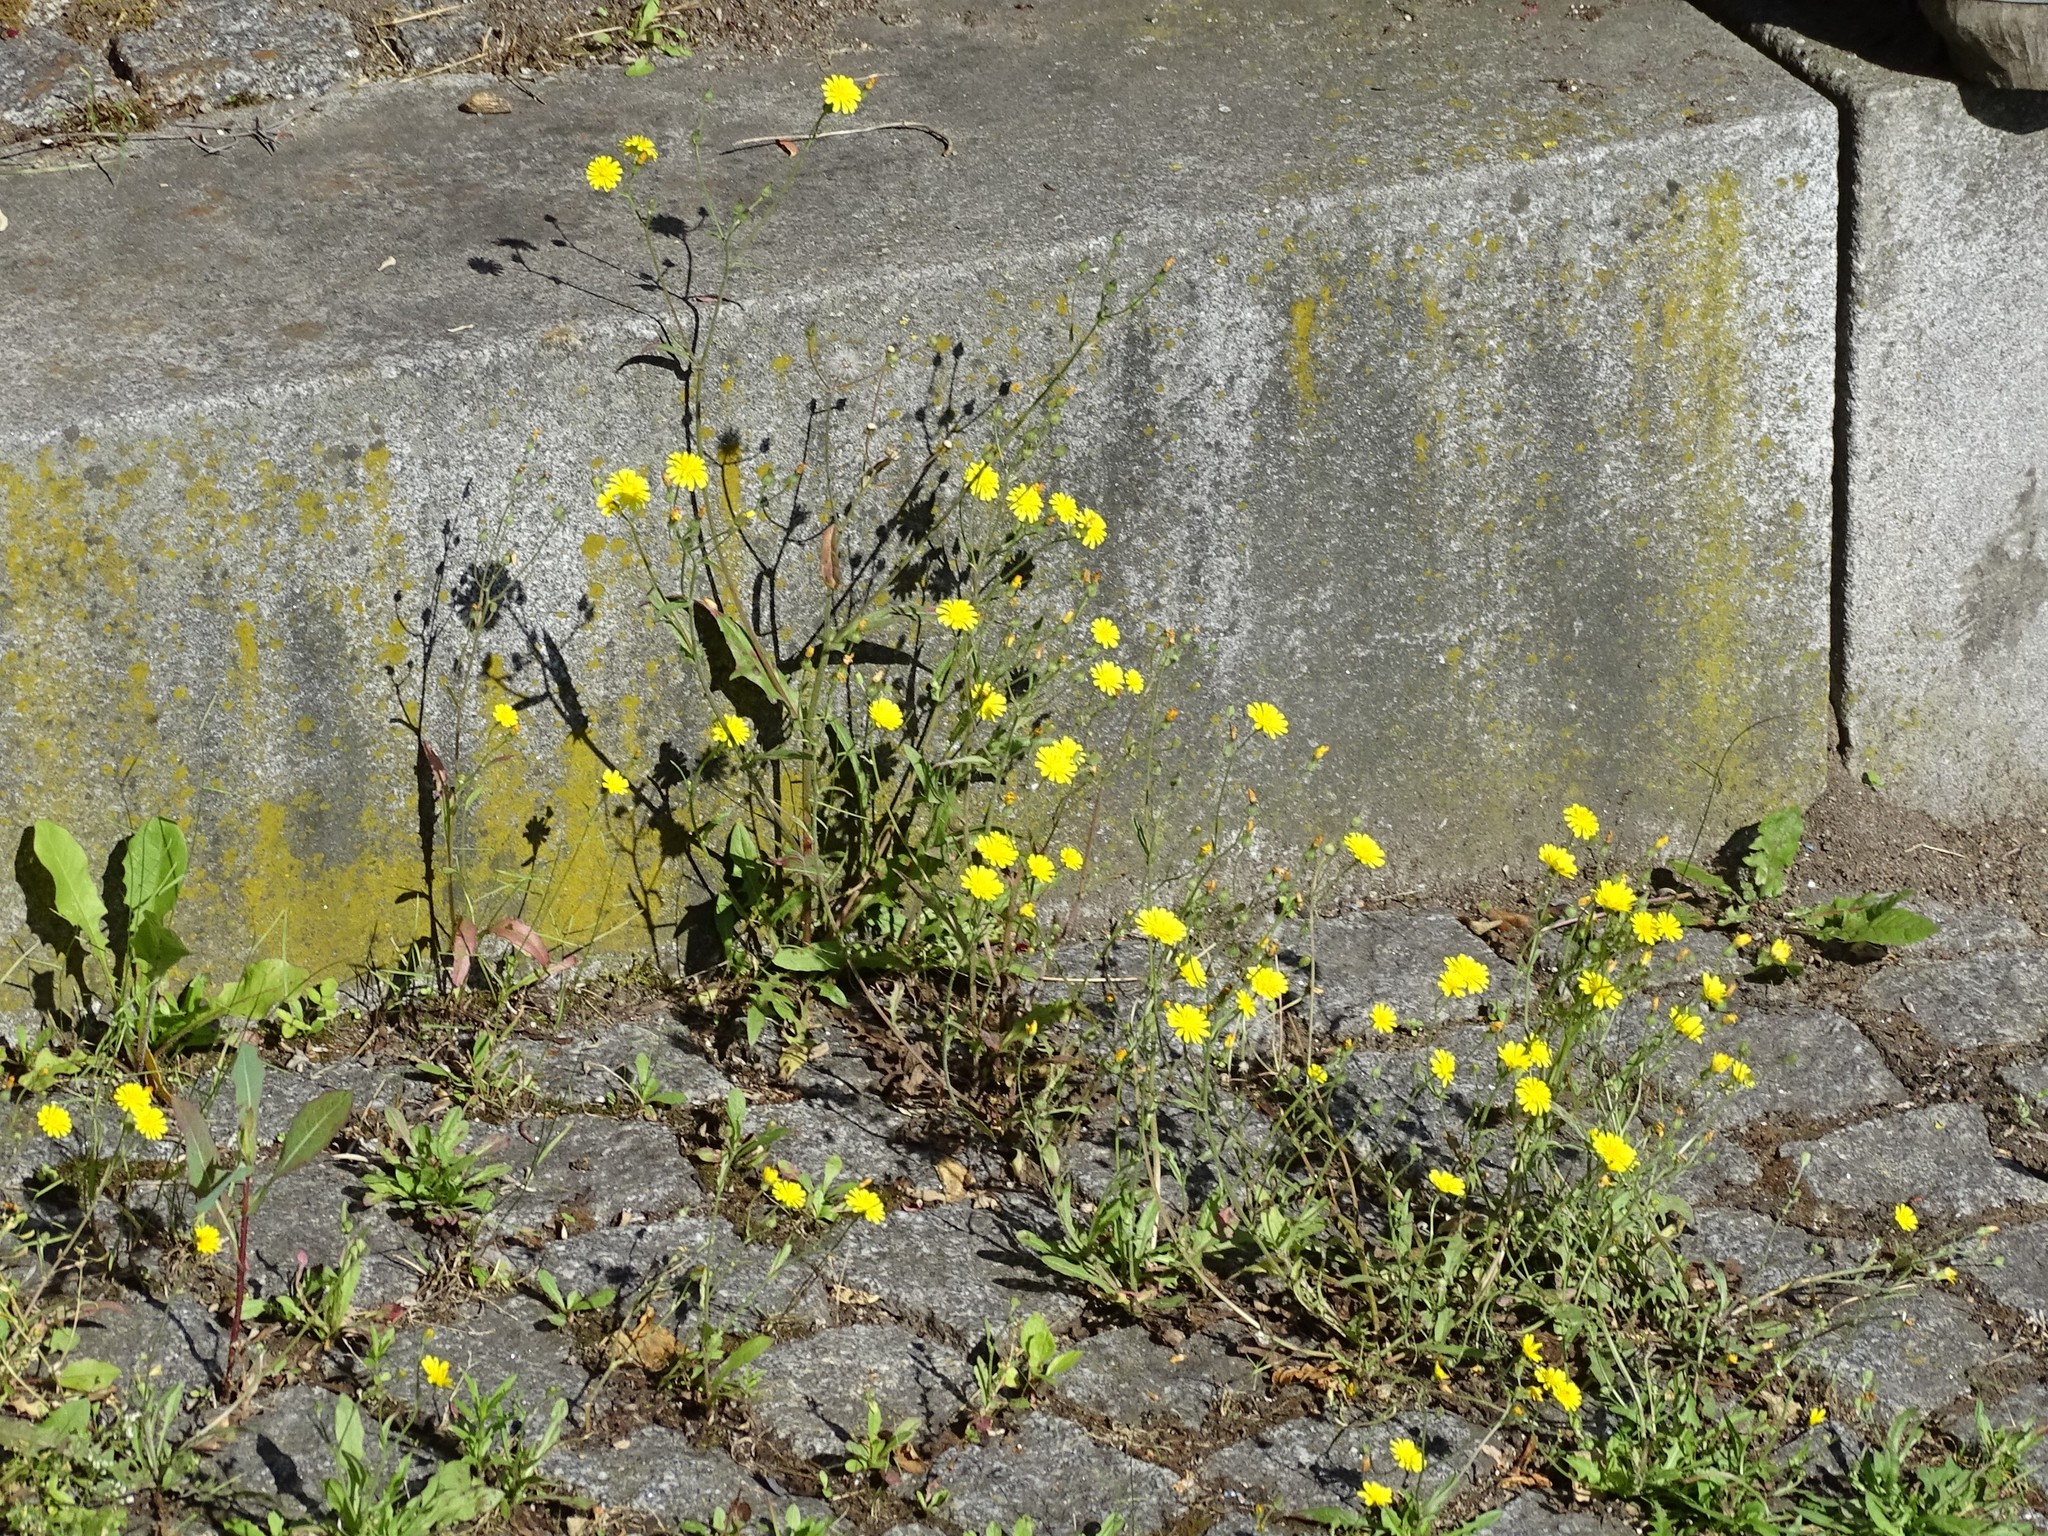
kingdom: Plantae
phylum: Tracheophyta
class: Magnoliopsida
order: Asterales
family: Asteraceae
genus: Crepis
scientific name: Crepis capillaris
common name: Smooth hawksbeard
